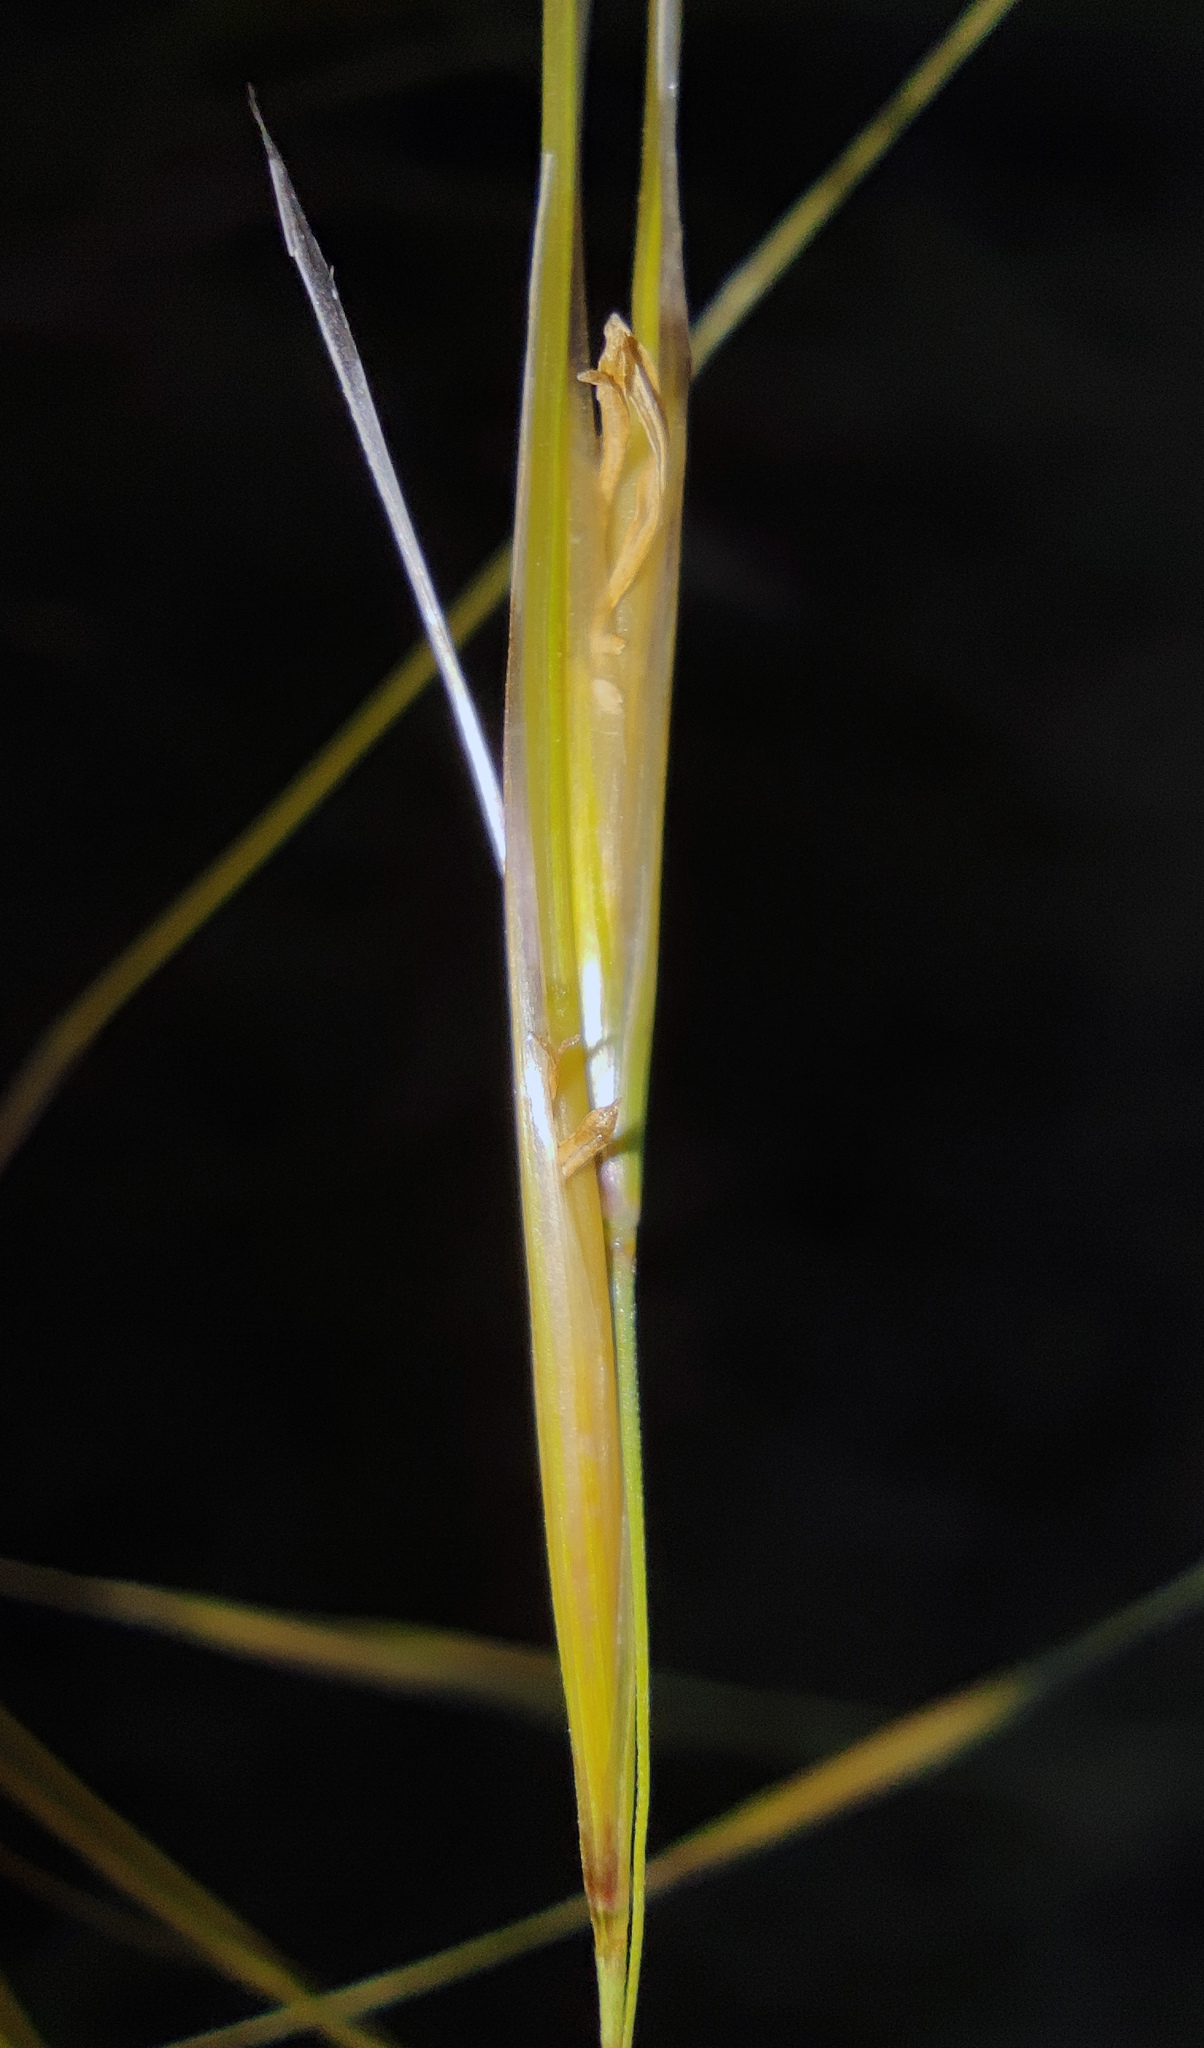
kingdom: Plantae
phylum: Tracheophyta
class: Liliopsida
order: Poales
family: Poaceae
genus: Stipa
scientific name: Stipa capillata
